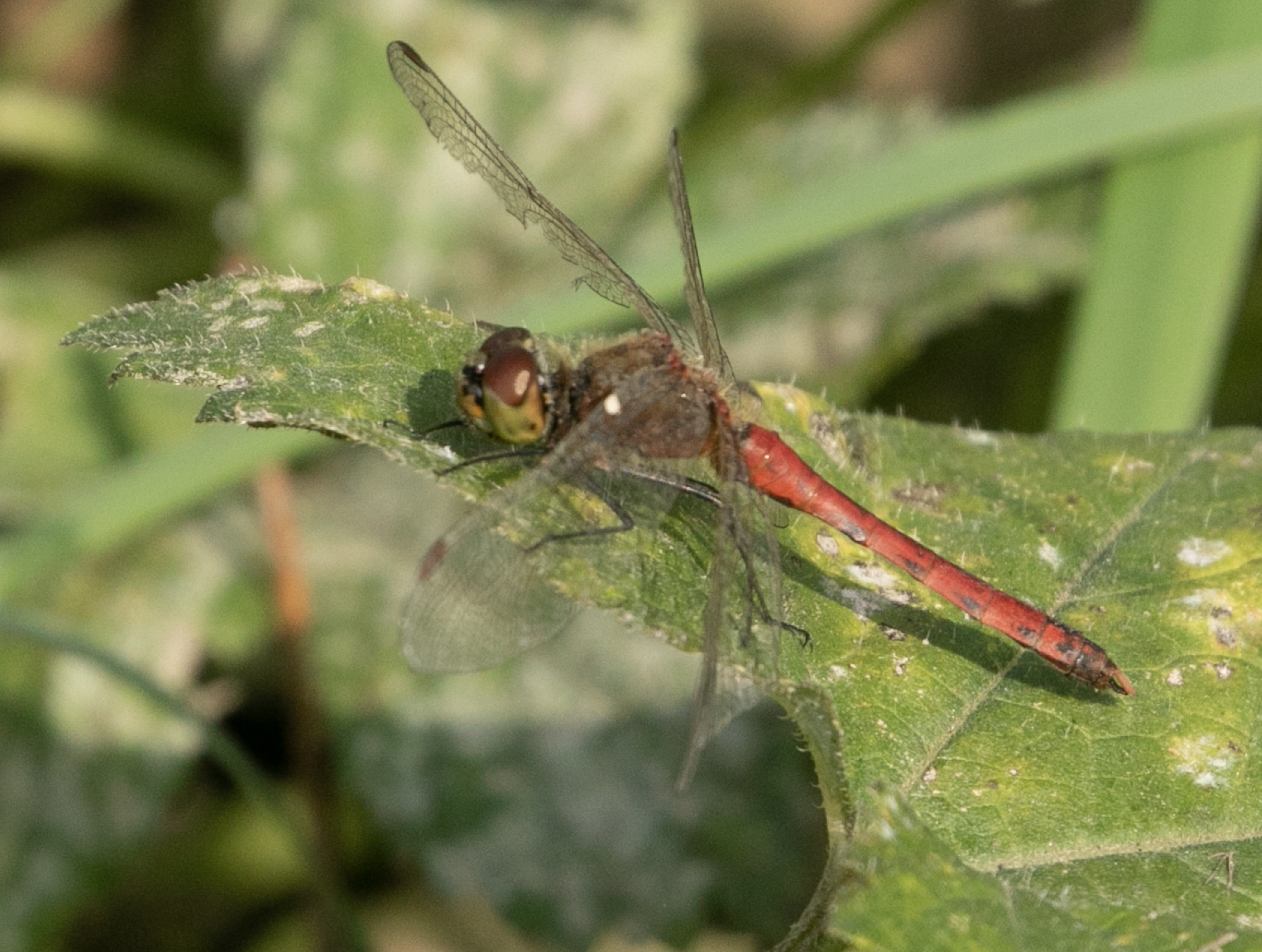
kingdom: Animalia
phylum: Arthropoda
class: Insecta
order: Odonata
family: Libellulidae
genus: Sympetrum
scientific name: Sympetrum depressiusculum
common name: Spotted darter
